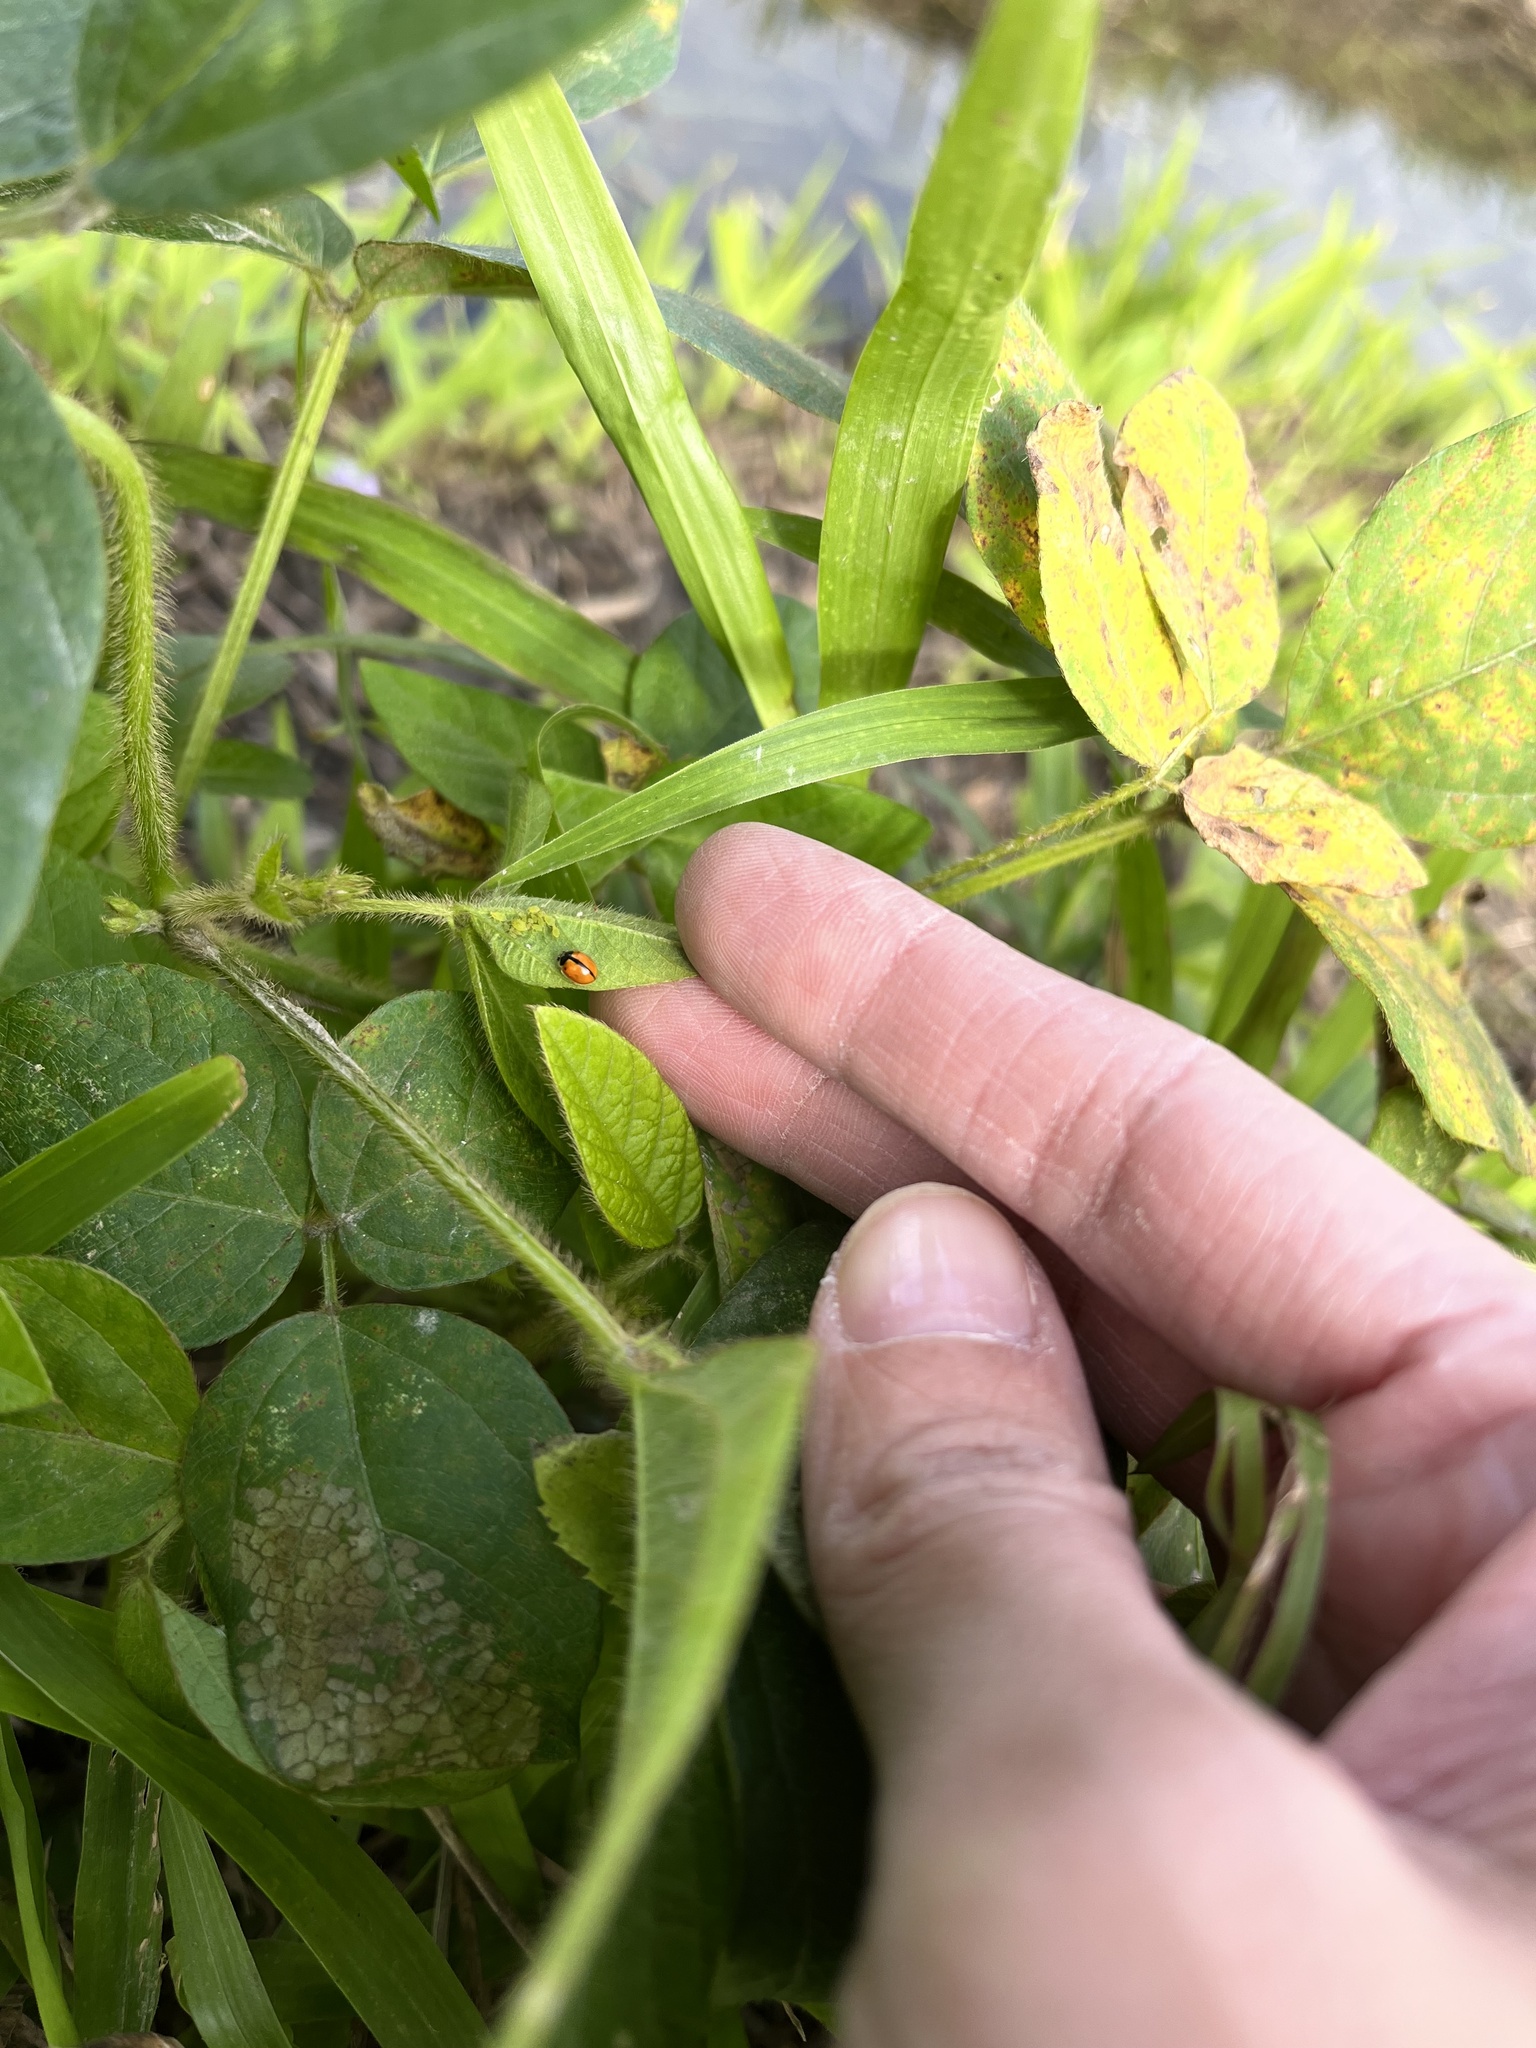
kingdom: Animalia
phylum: Arthropoda
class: Insecta
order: Coleoptera
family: Coccinellidae
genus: Propylea
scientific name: Propylea japonica
